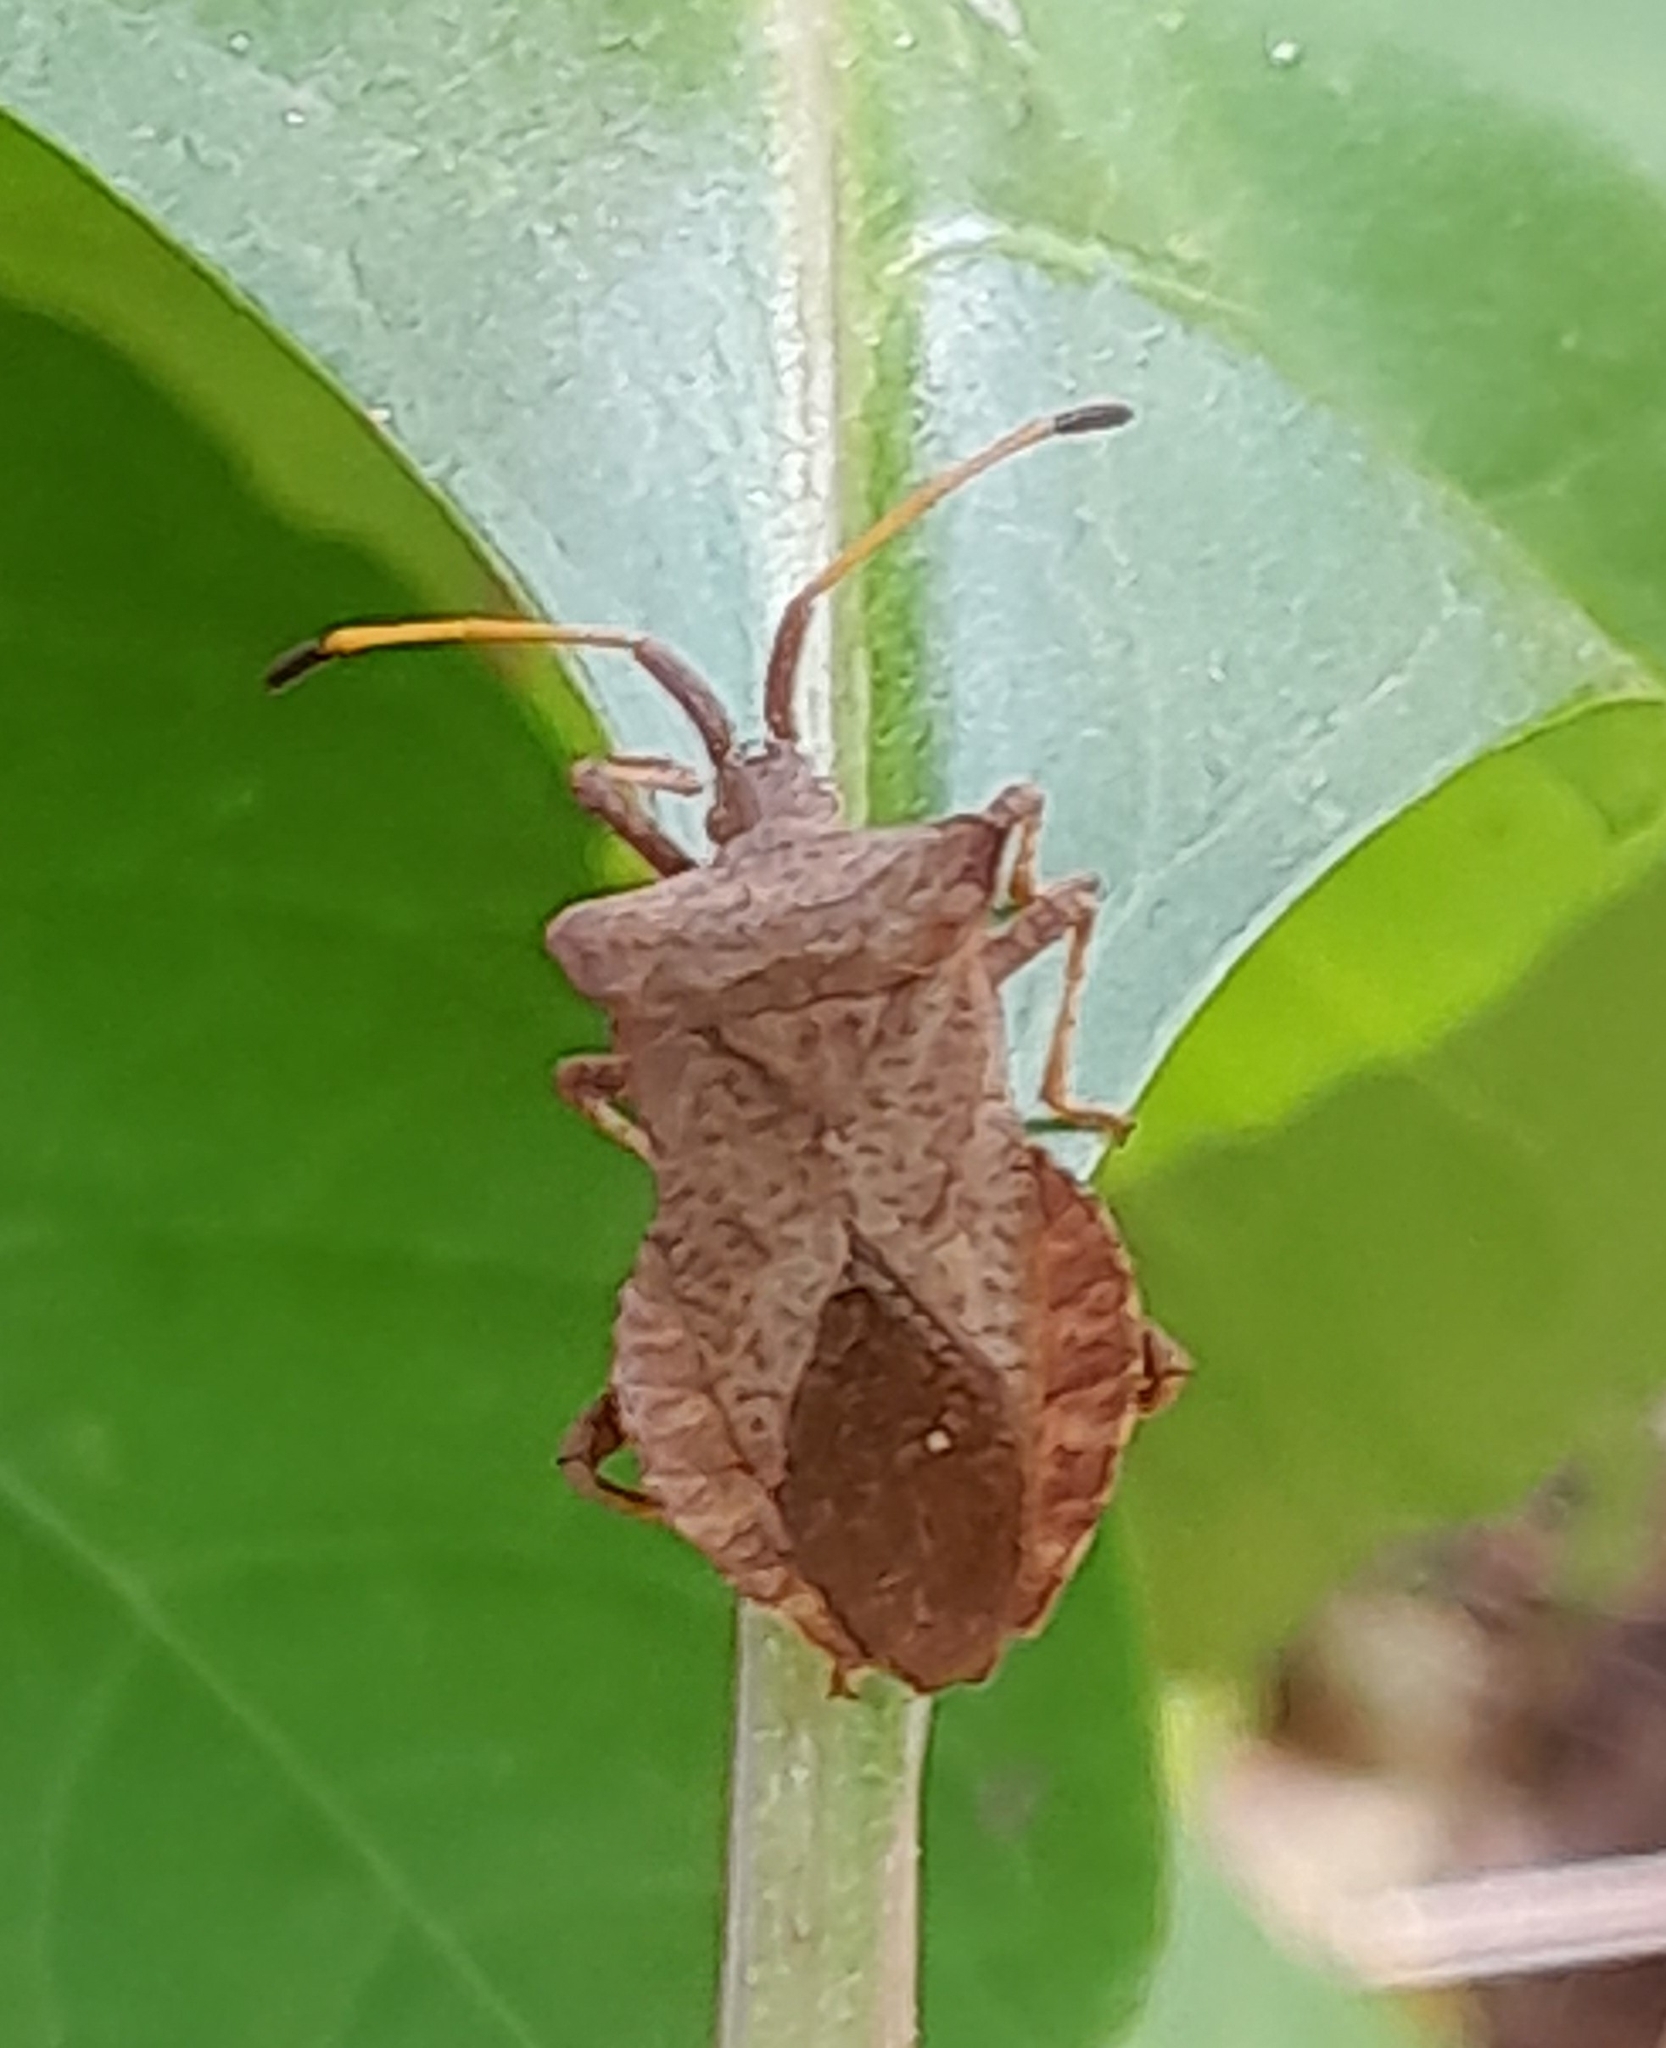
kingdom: Animalia
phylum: Arthropoda
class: Insecta
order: Hemiptera
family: Coreidae
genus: Coreus
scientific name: Coreus marginatus
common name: Dock bug
